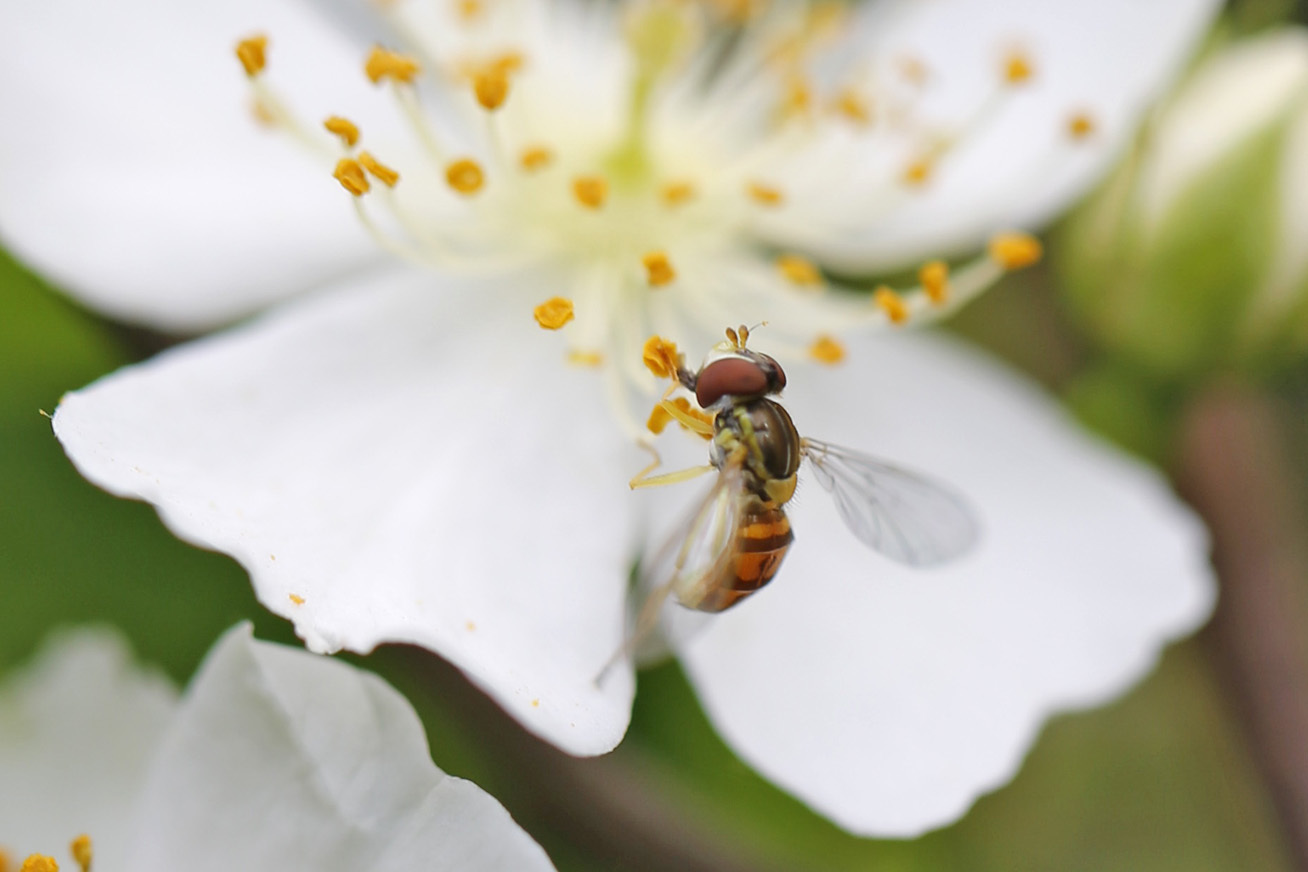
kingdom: Animalia
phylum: Arthropoda
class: Insecta
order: Diptera
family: Syrphidae
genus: Toxomerus
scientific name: Toxomerus marginatus
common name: Syrphid fly
